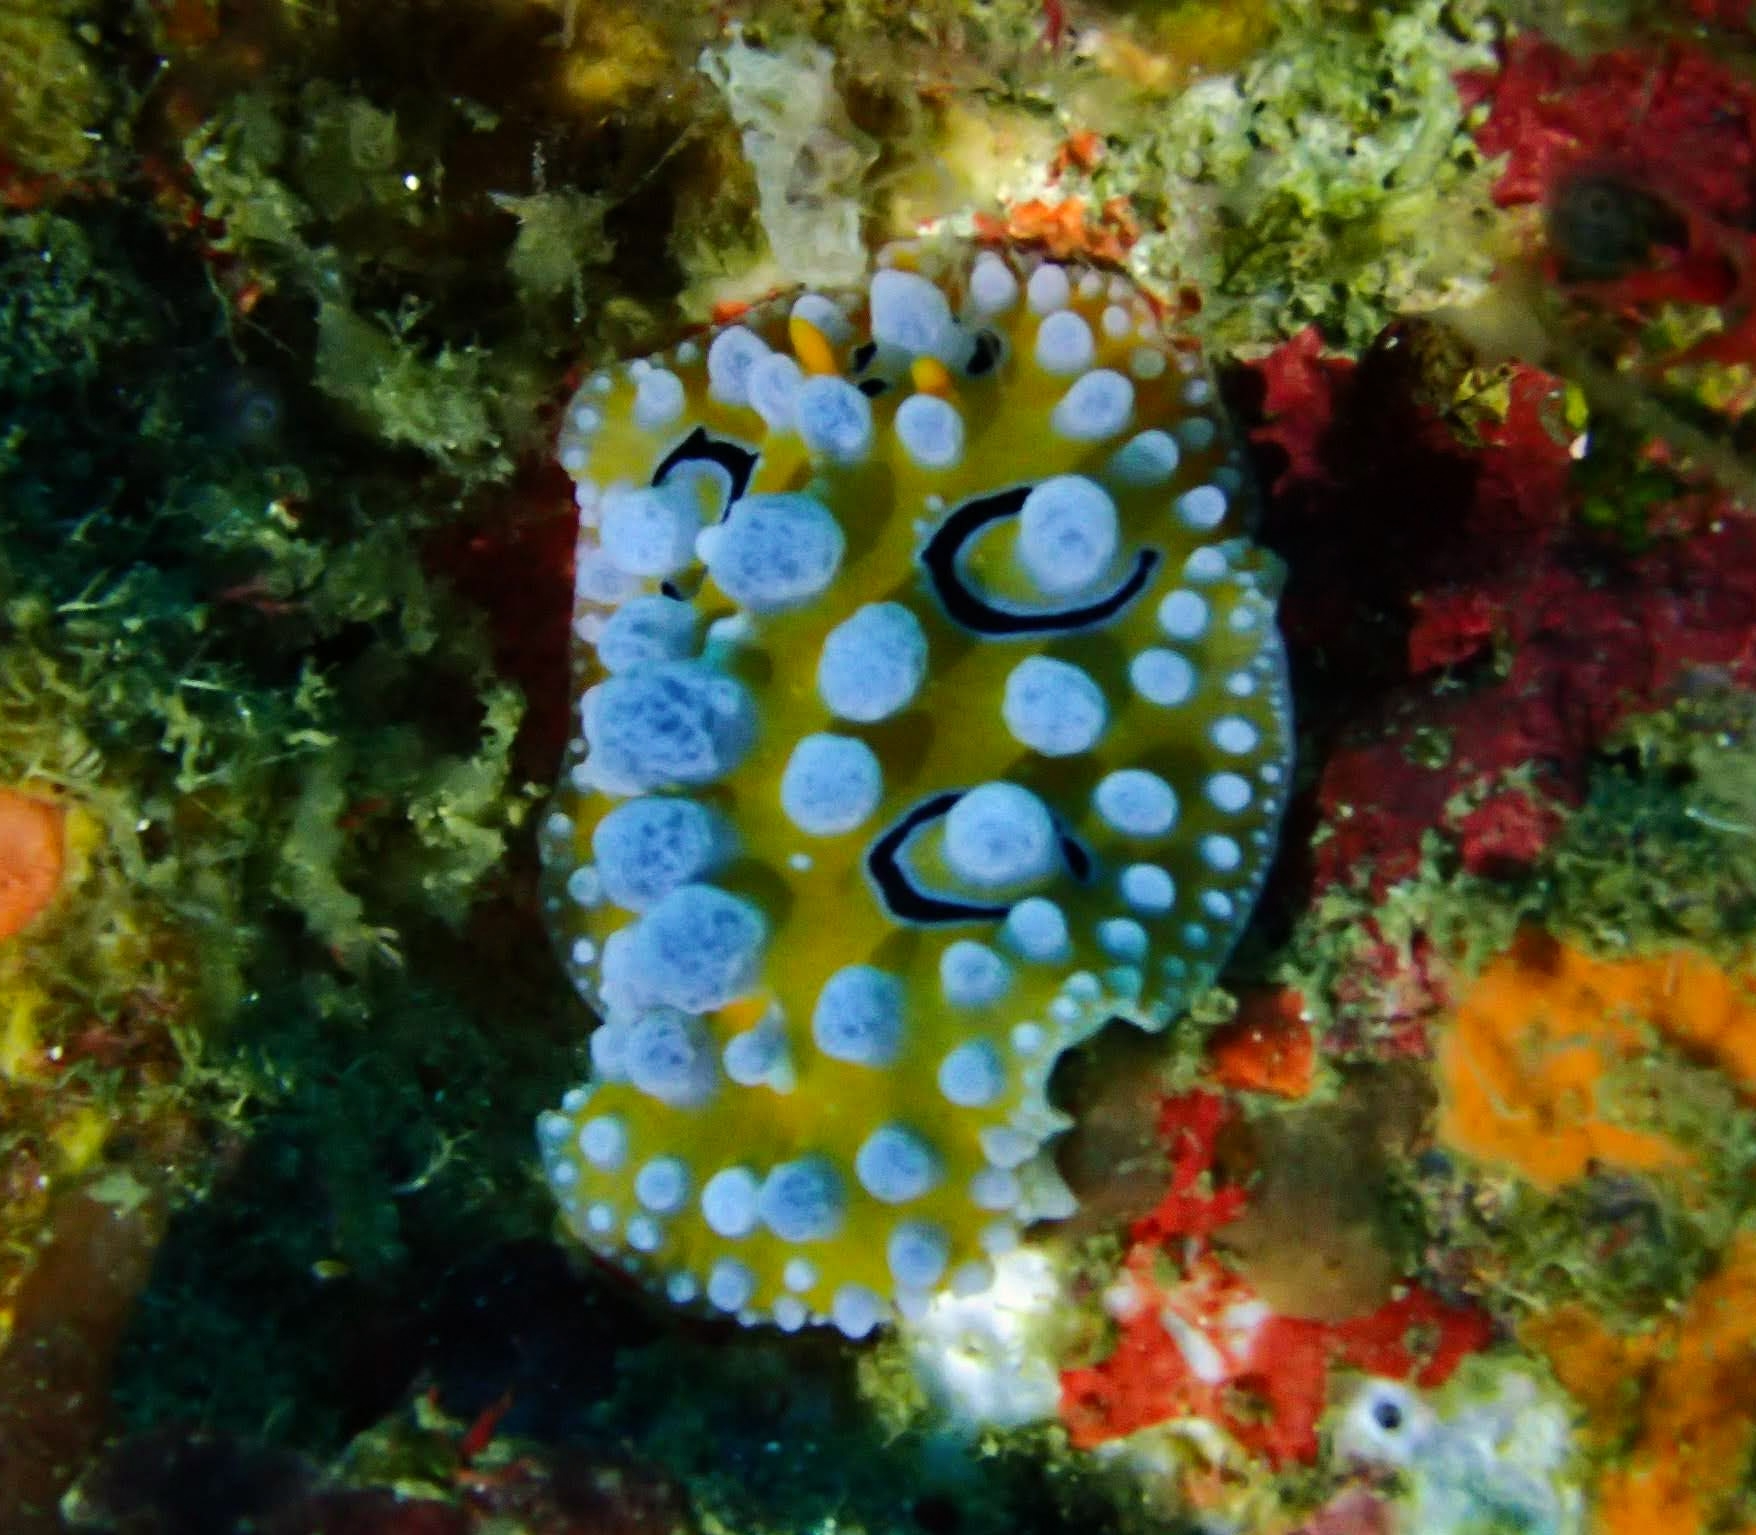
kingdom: Animalia
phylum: Mollusca
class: Gastropoda
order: Nudibranchia
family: Phyllidiidae
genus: Phyllidia
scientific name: Phyllidia ocellata
